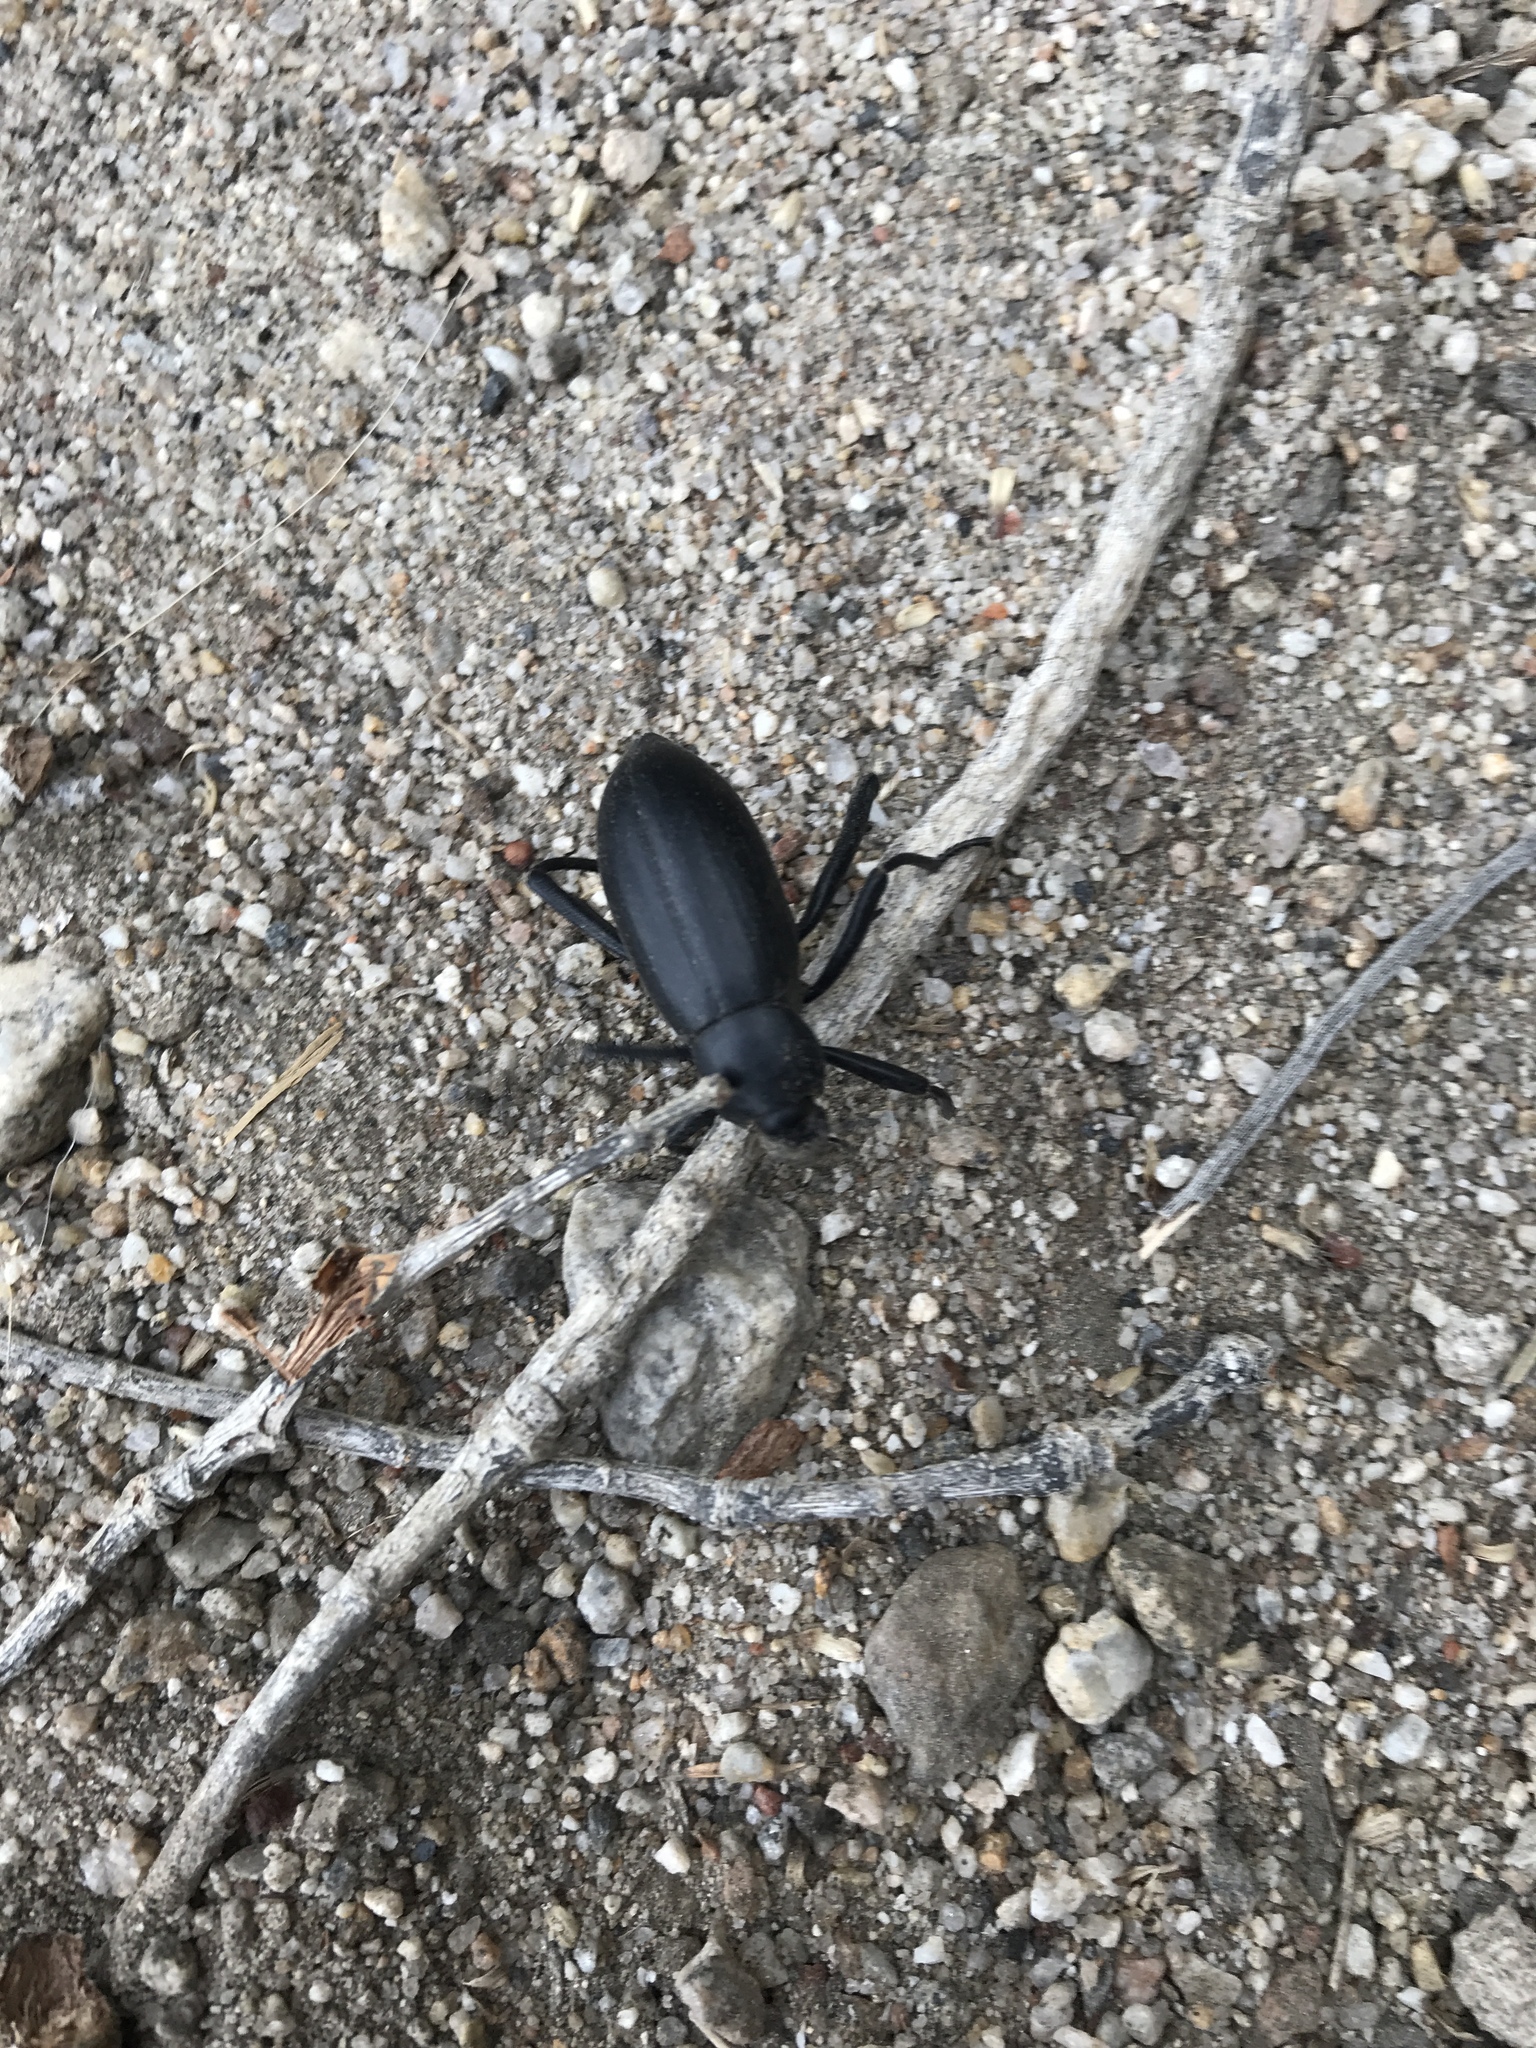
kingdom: Animalia
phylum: Arthropoda
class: Insecta
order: Coleoptera
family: Tenebrionidae
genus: Eleodes
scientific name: Eleodes armata
